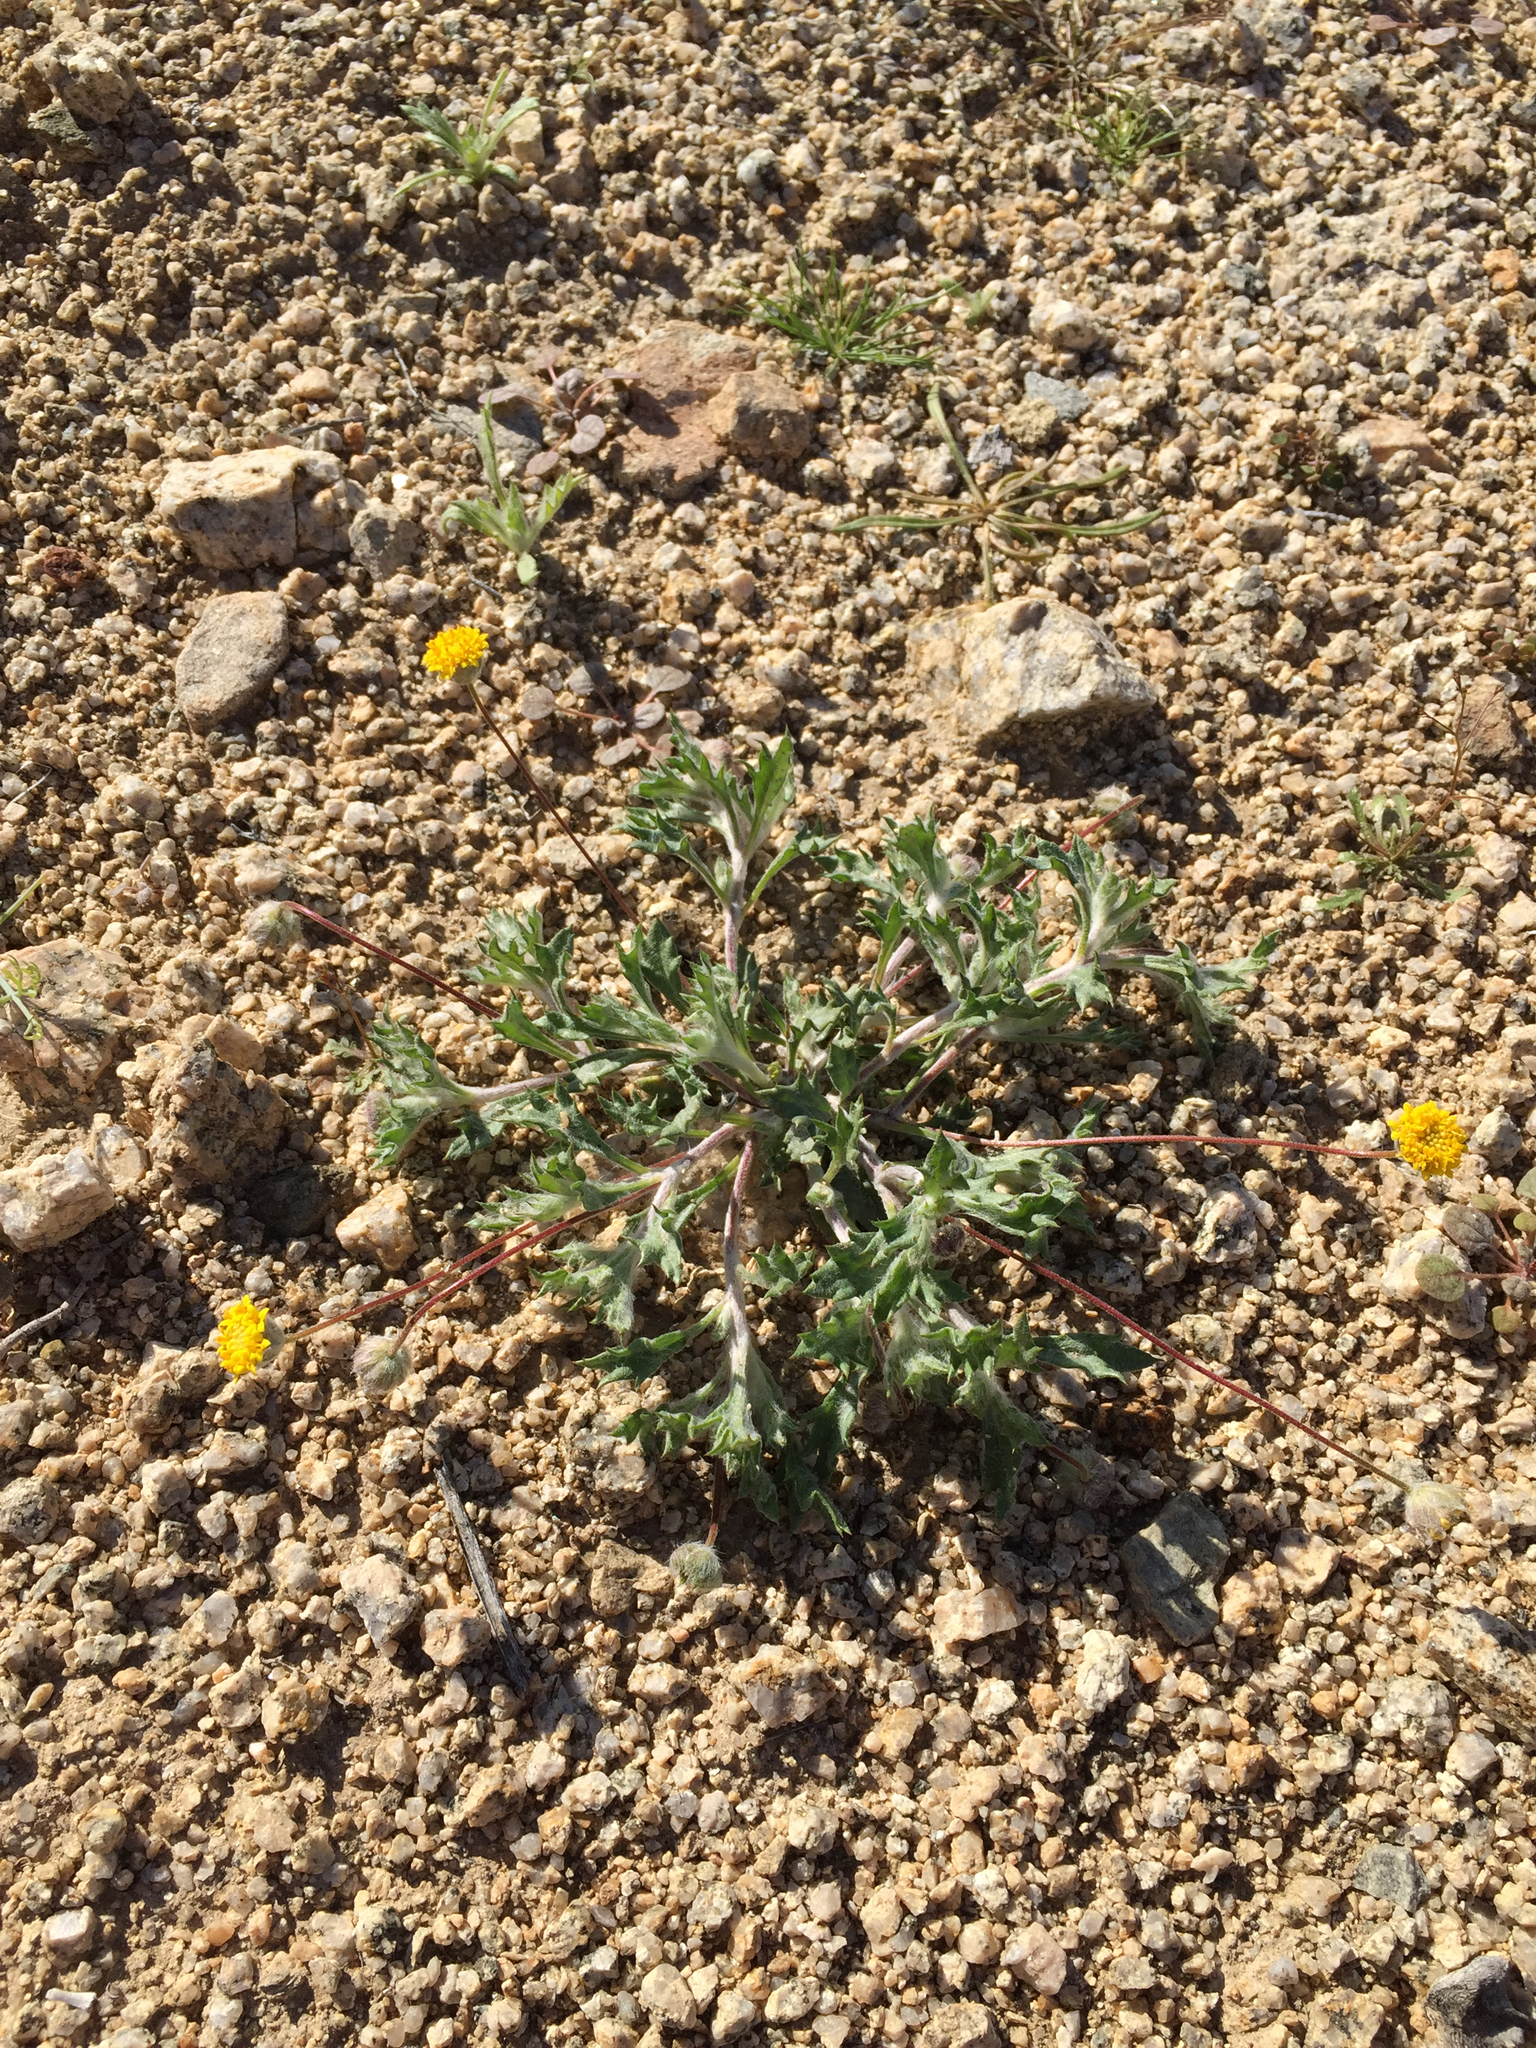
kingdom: Plantae
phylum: Tracheophyta
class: Magnoliopsida
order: Asterales
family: Asteraceae
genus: Trichoptilium
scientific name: Trichoptilium incisum
